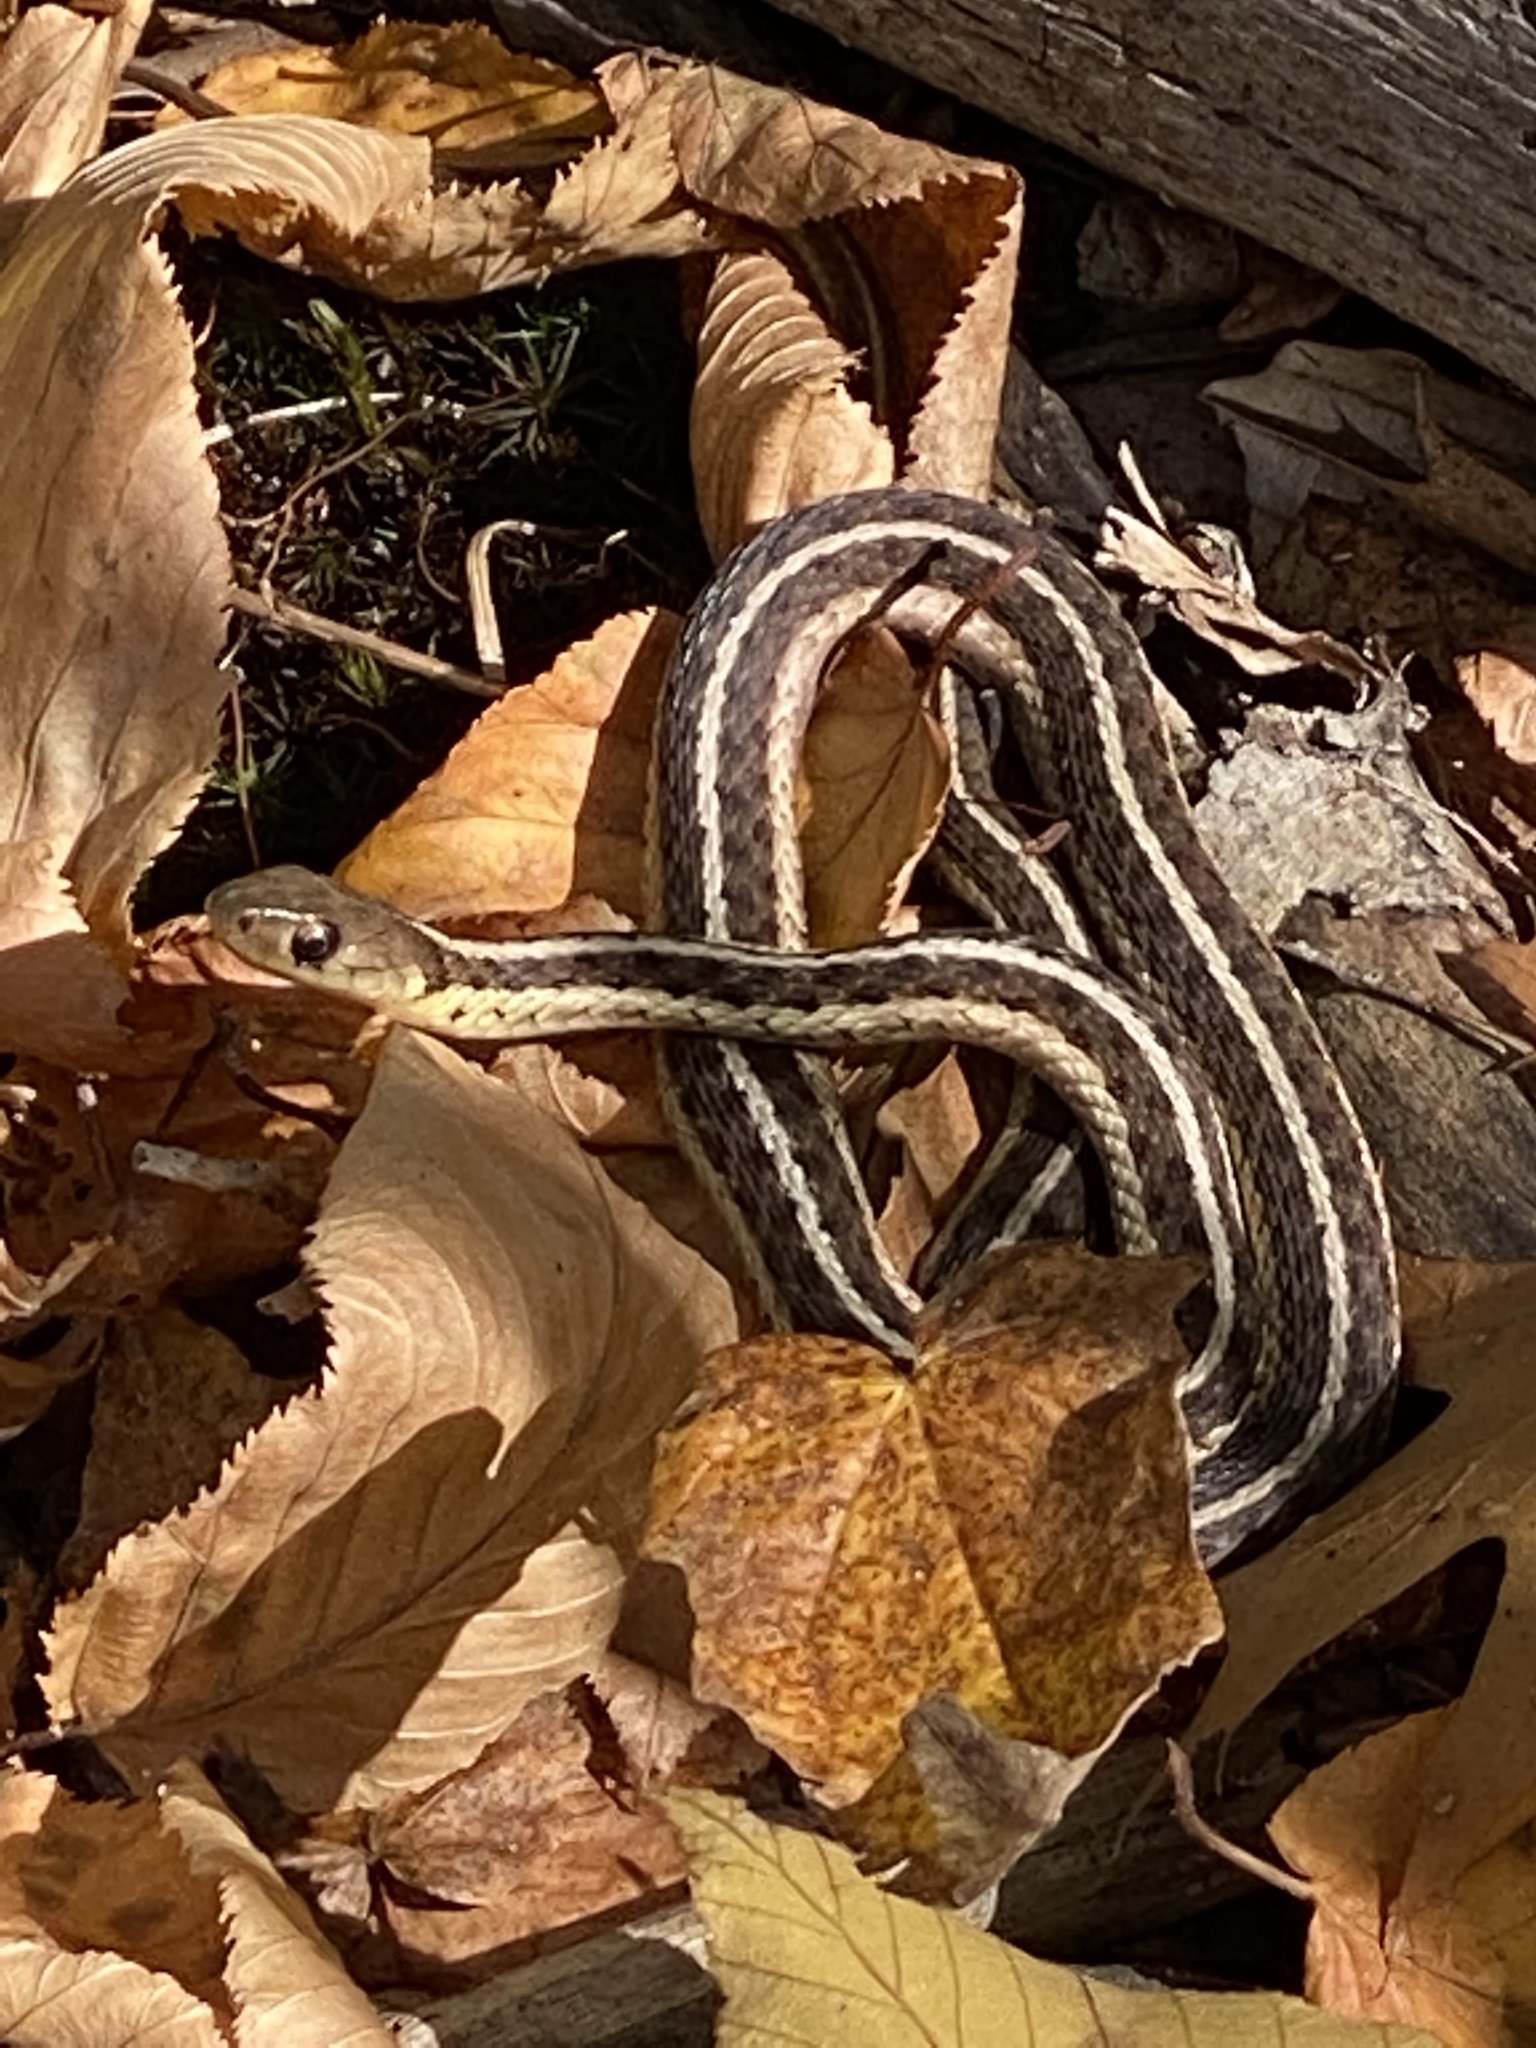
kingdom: Animalia
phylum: Chordata
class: Squamata
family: Colubridae
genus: Thamnophis
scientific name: Thamnophis sirtalis
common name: Common garter snake
